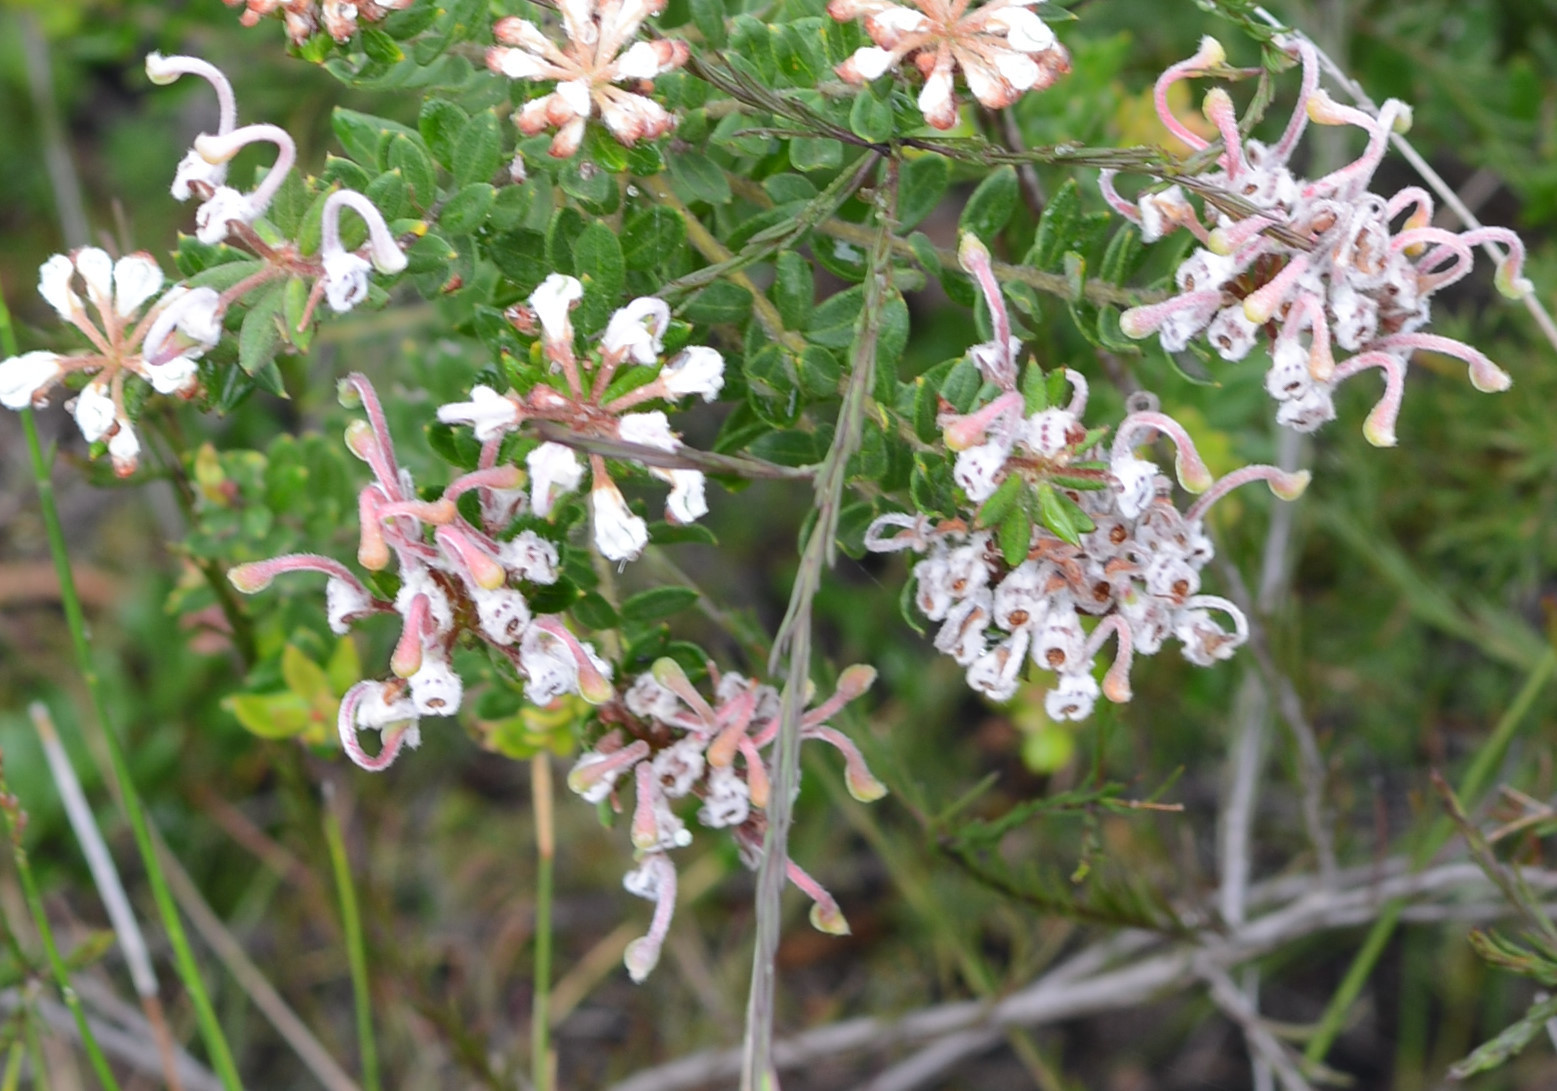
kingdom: Plantae
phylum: Tracheophyta
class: Magnoliopsida
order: Proteales
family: Proteaceae
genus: Grevillea
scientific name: Grevillea buxifolia
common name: Grey spiderflower
